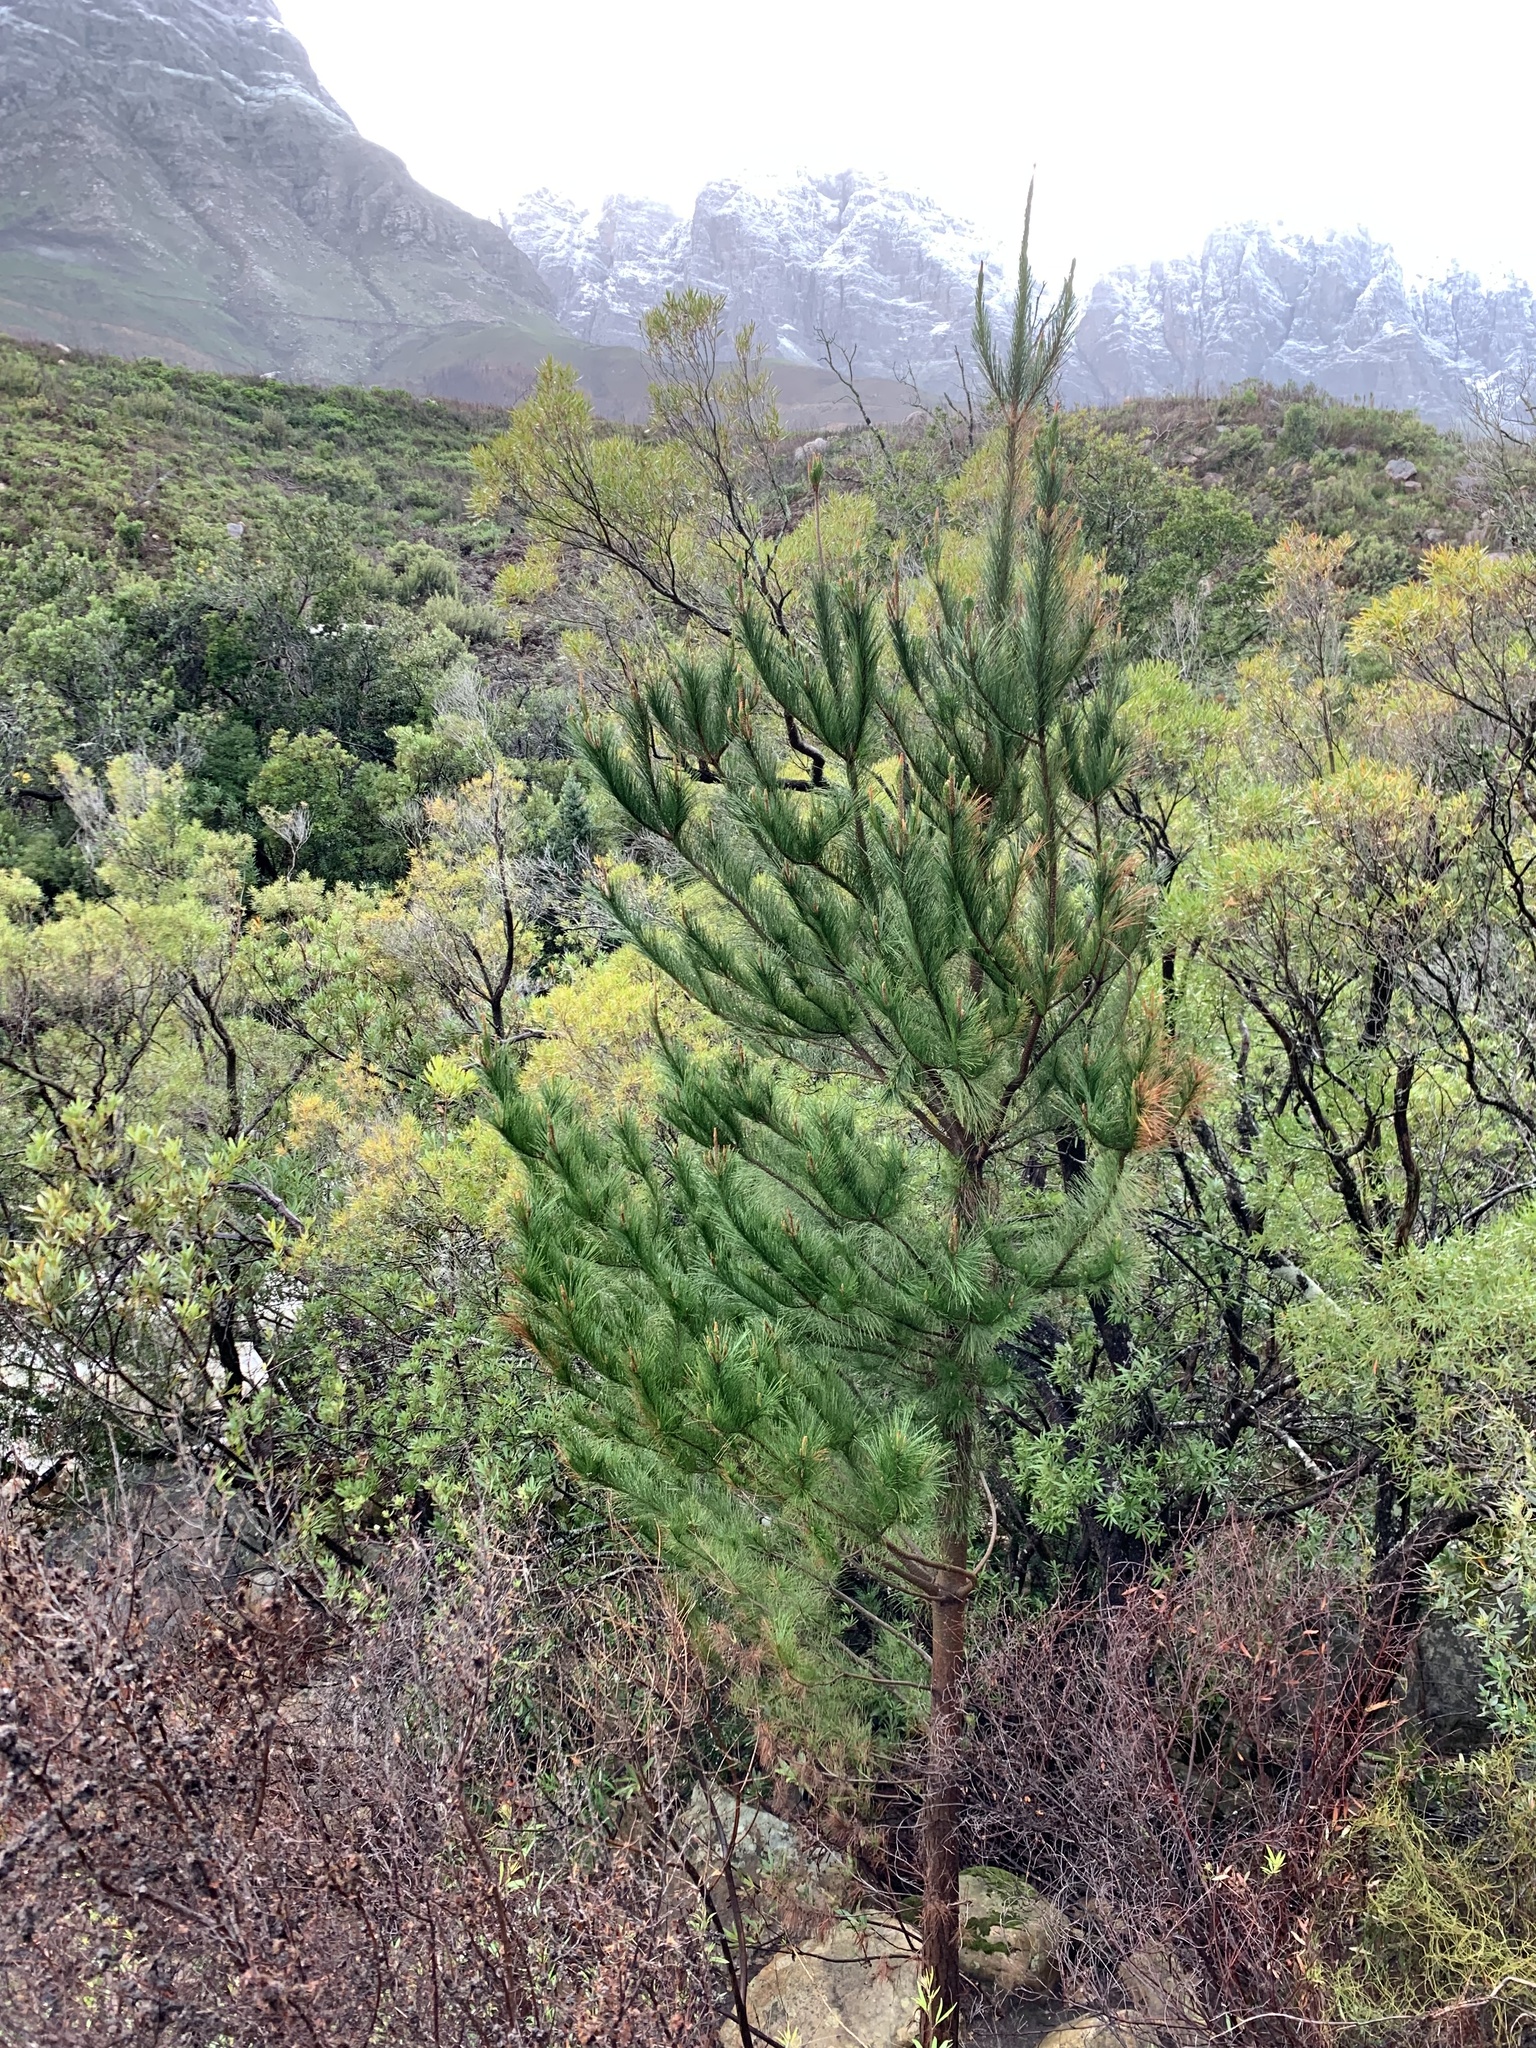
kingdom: Plantae
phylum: Tracheophyta
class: Pinopsida
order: Pinales
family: Pinaceae
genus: Pinus
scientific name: Pinus radiata
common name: Monterey pine
